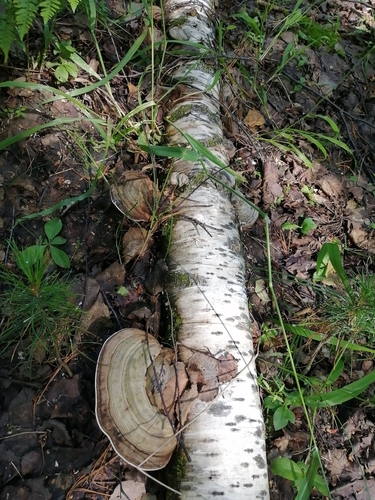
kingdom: Fungi
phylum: Basidiomycota
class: Agaricomycetes
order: Polyporales
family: Polyporaceae
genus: Ganoderma
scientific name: Ganoderma applanatum
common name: Artist's bracket
